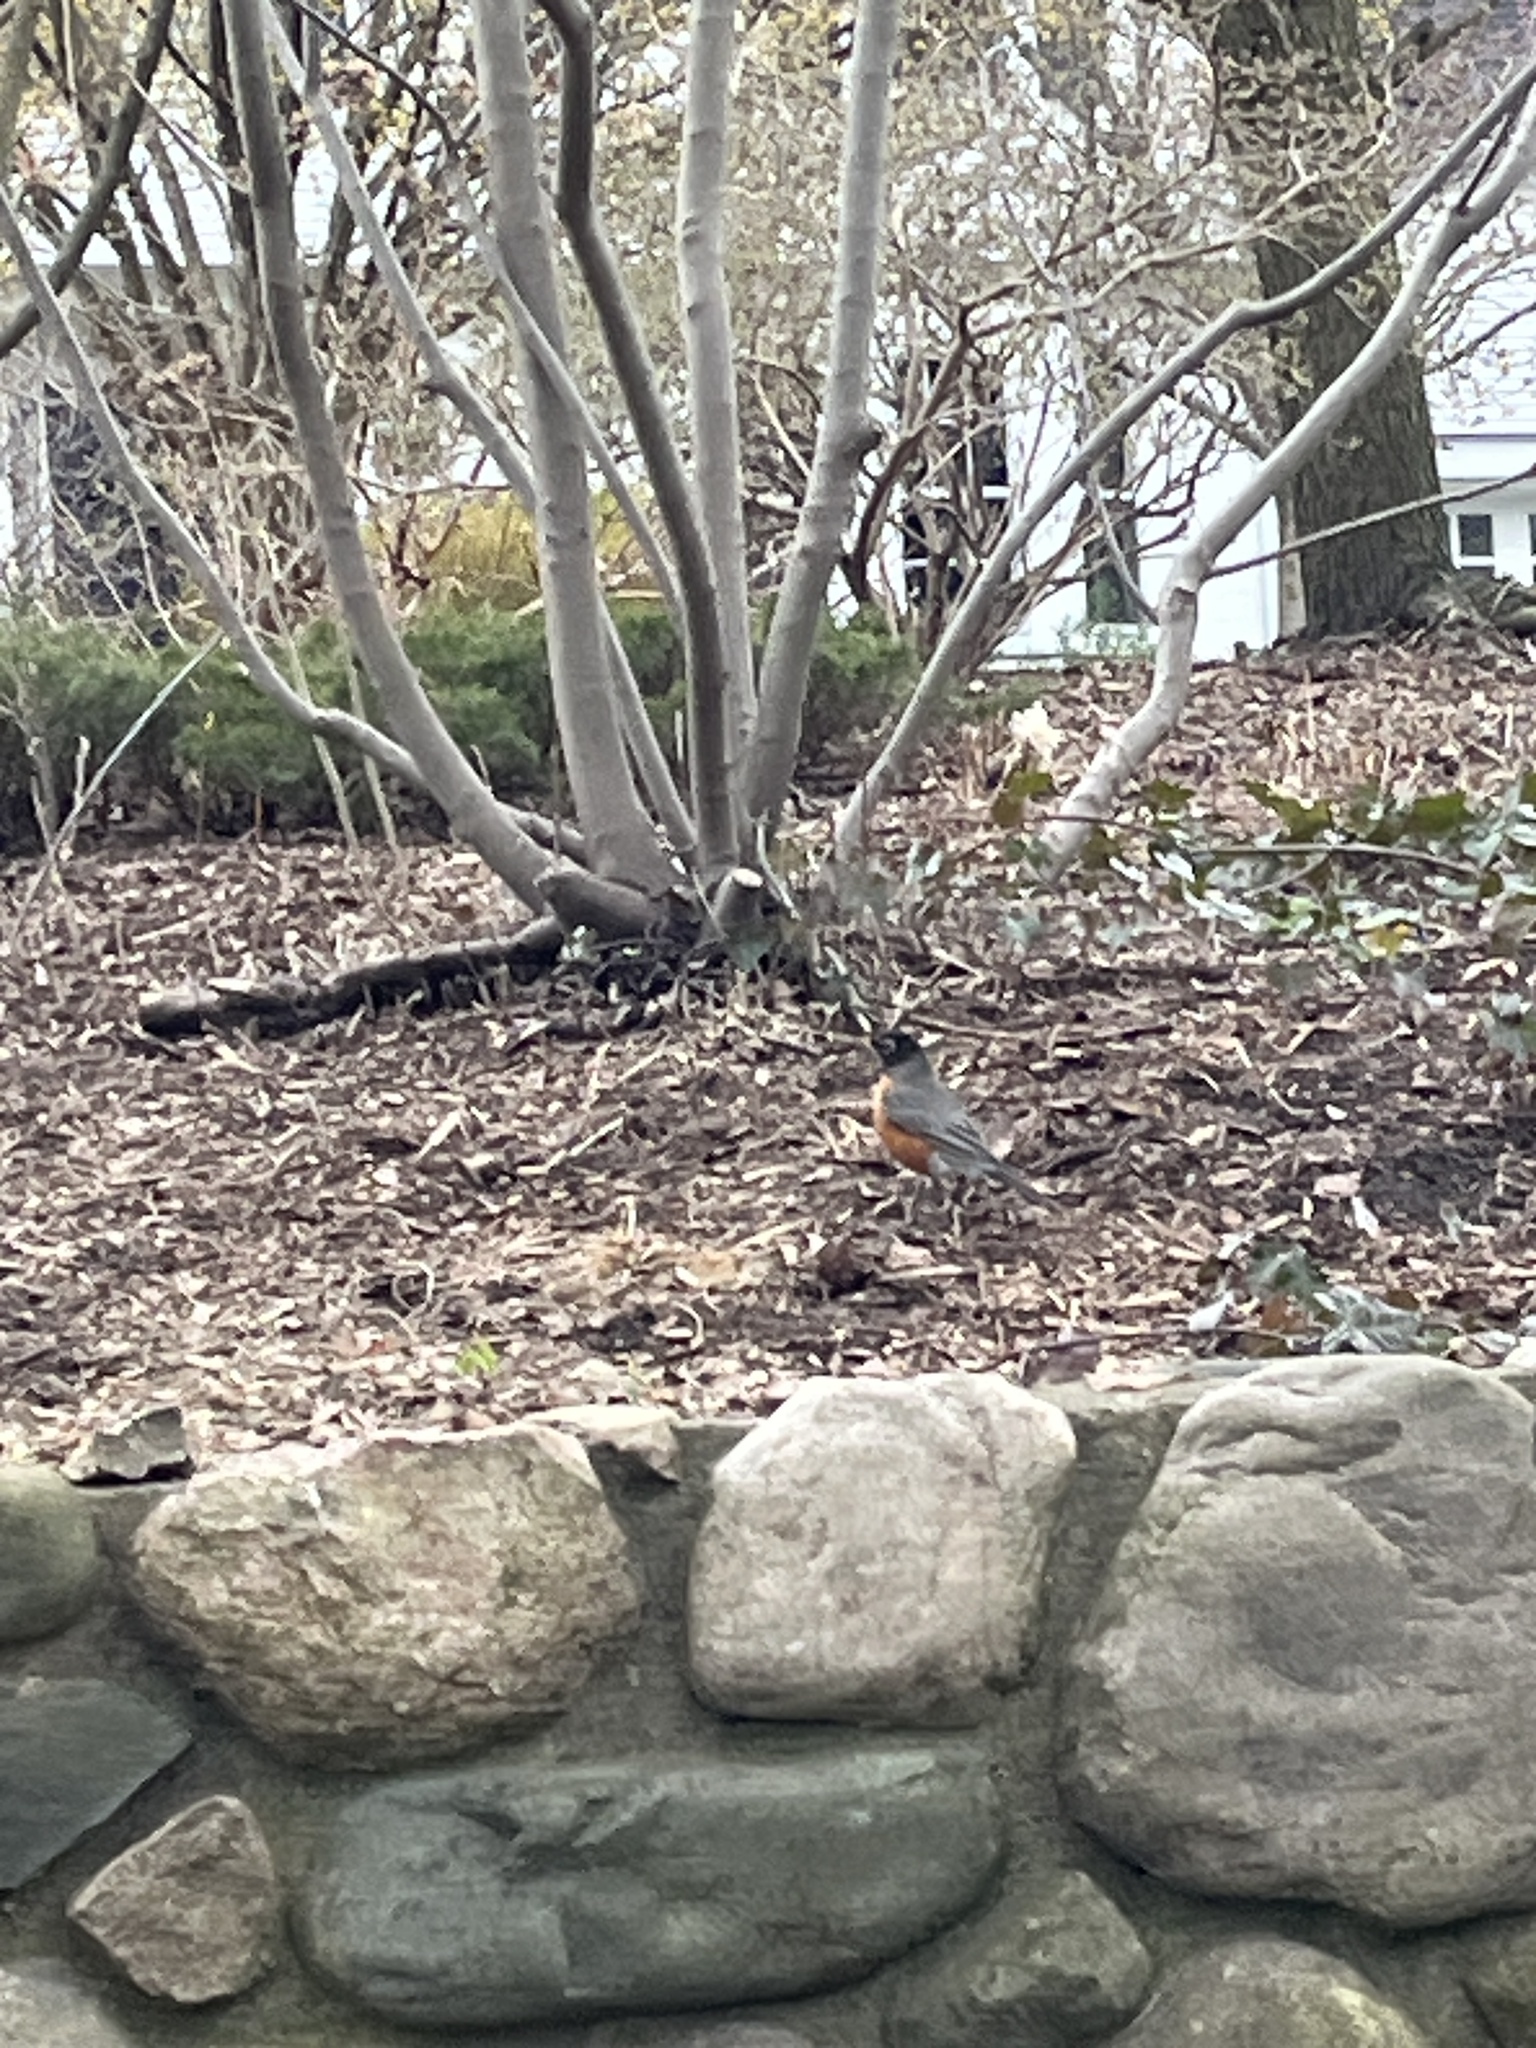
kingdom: Animalia
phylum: Chordata
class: Aves
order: Passeriformes
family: Turdidae
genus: Turdus
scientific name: Turdus migratorius
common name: American robin
